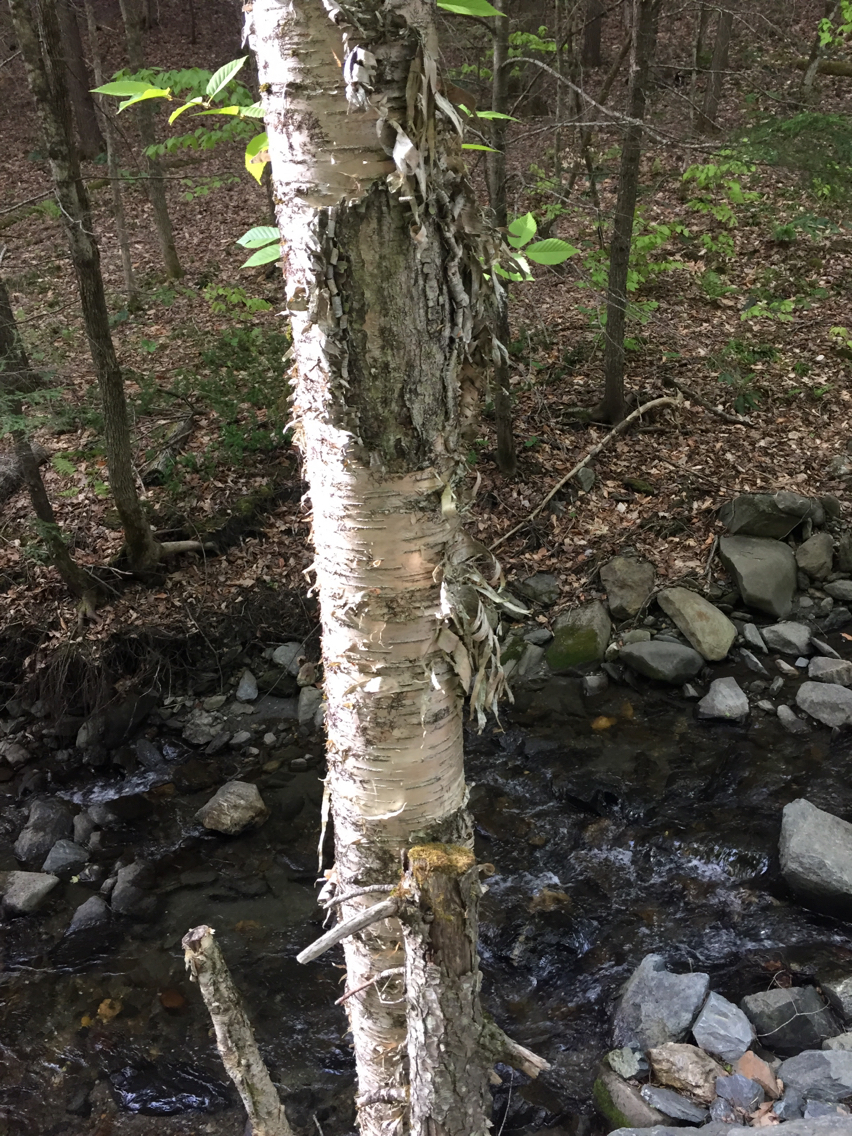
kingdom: Plantae
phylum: Tracheophyta
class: Magnoliopsida
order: Fagales
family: Betulaceae
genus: Betula
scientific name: Betula alleghaniensis
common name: Yellow birch
